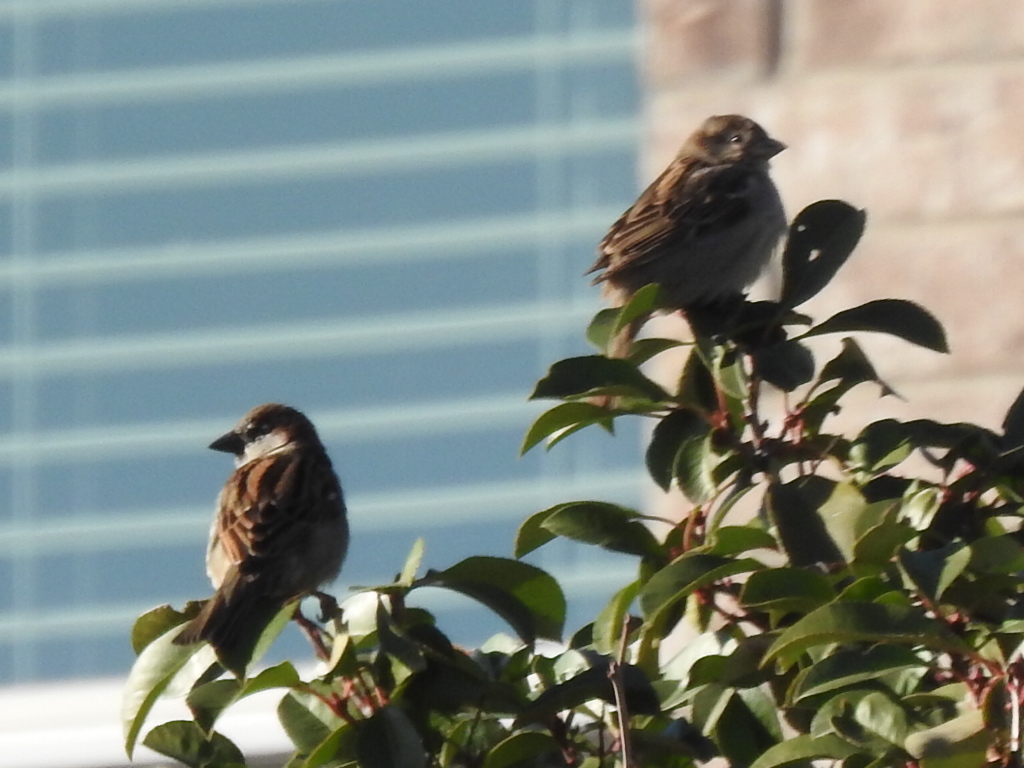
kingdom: Animalia
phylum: Chordata
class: Aves
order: Passeriformes
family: Passeridae
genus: Passer
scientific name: Passer domesticus
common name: House sparrow
